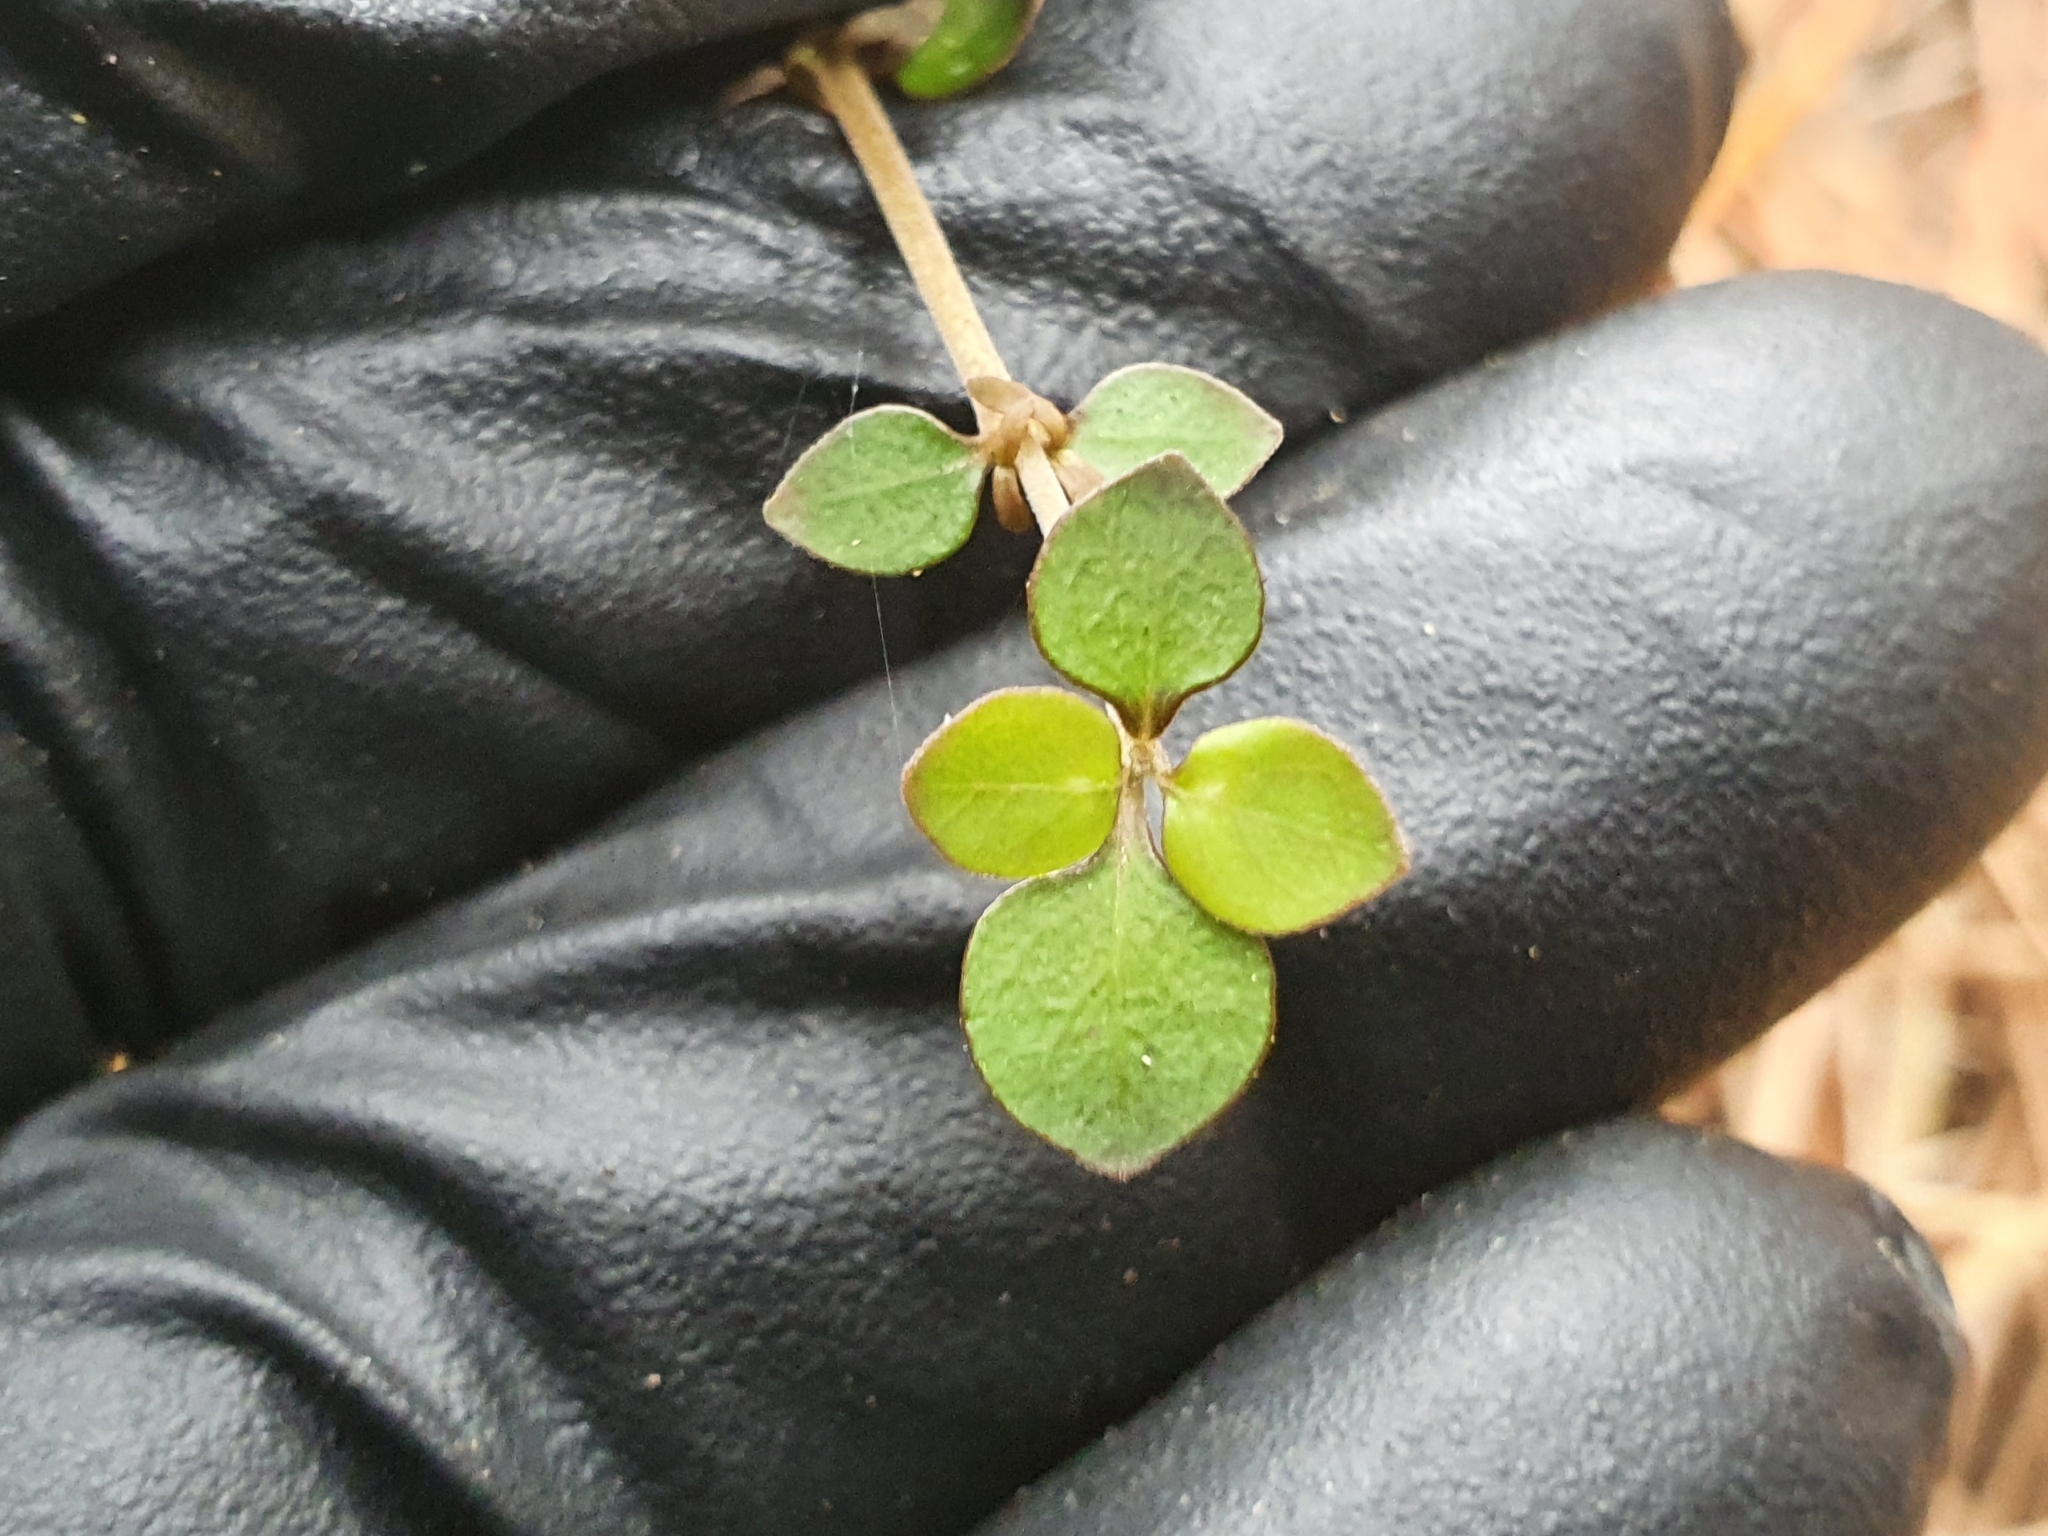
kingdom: Plantae
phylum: Tracheophyta
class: Magnoliopsida
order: Gentianales
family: Rubiaceae
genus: Coprosma
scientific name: Coprosma rhamnoides
